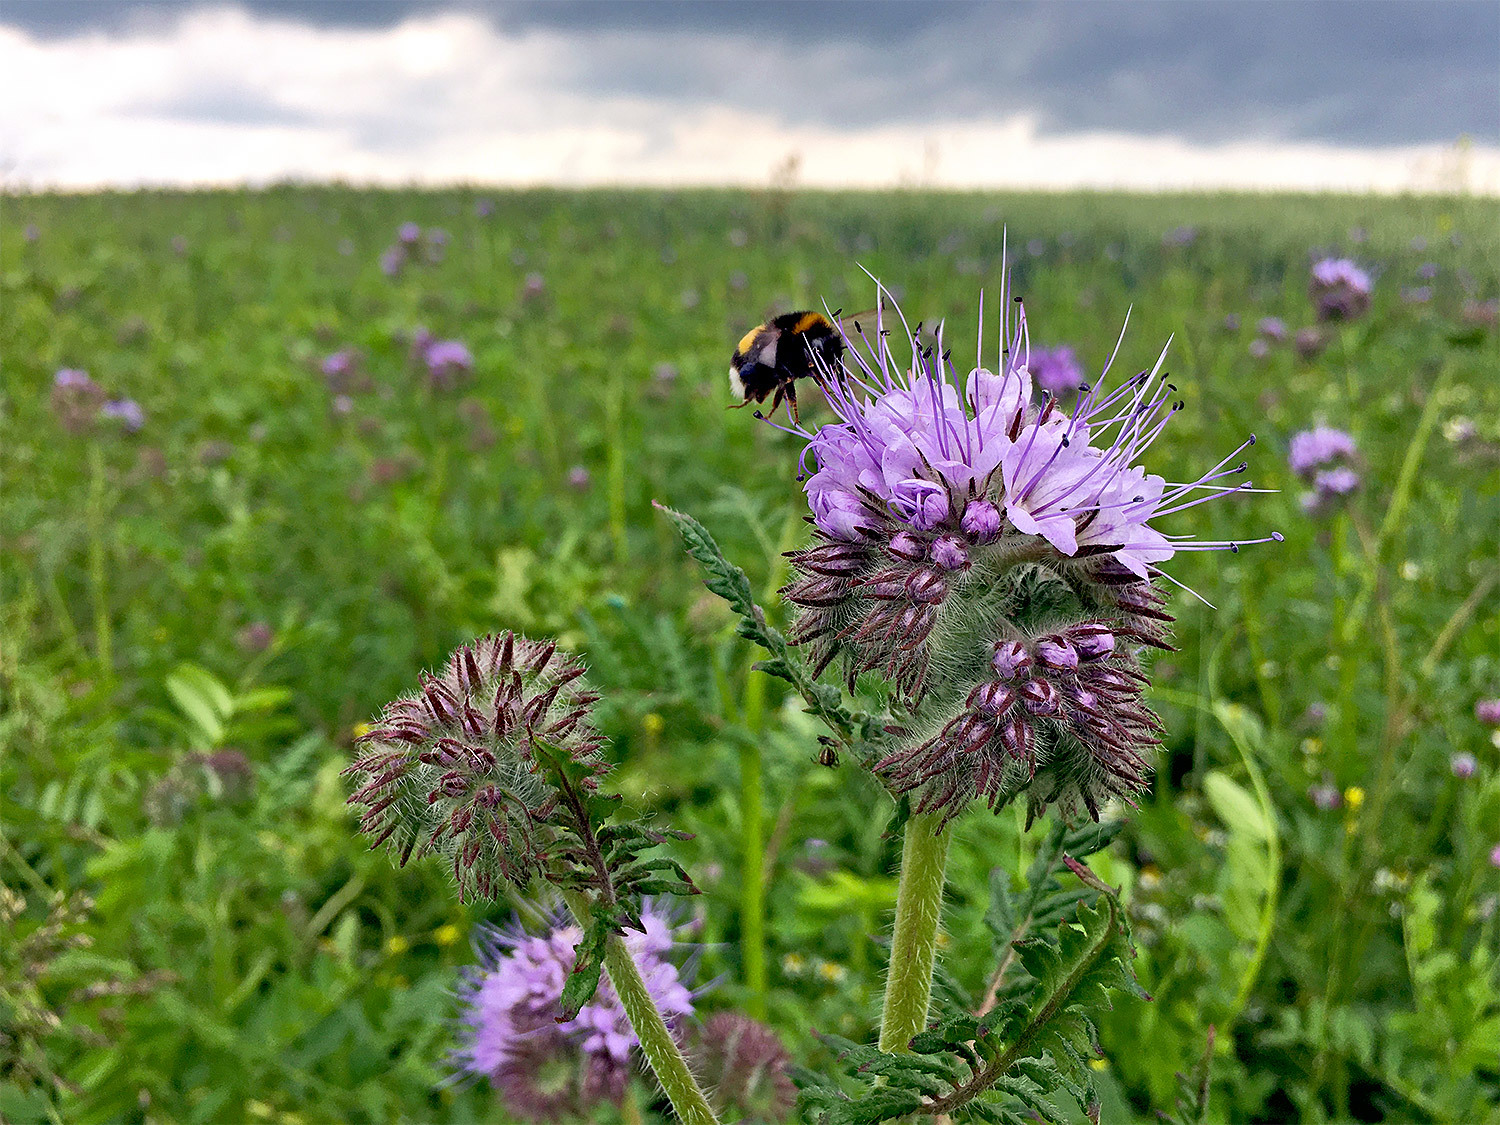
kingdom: Plantae
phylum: Tracheophyta
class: Magnoliopsida
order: Boraginales
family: Hydrophyllaceae
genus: Phacelia
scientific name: Phacelia tanacetifolia
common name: Phacelia
